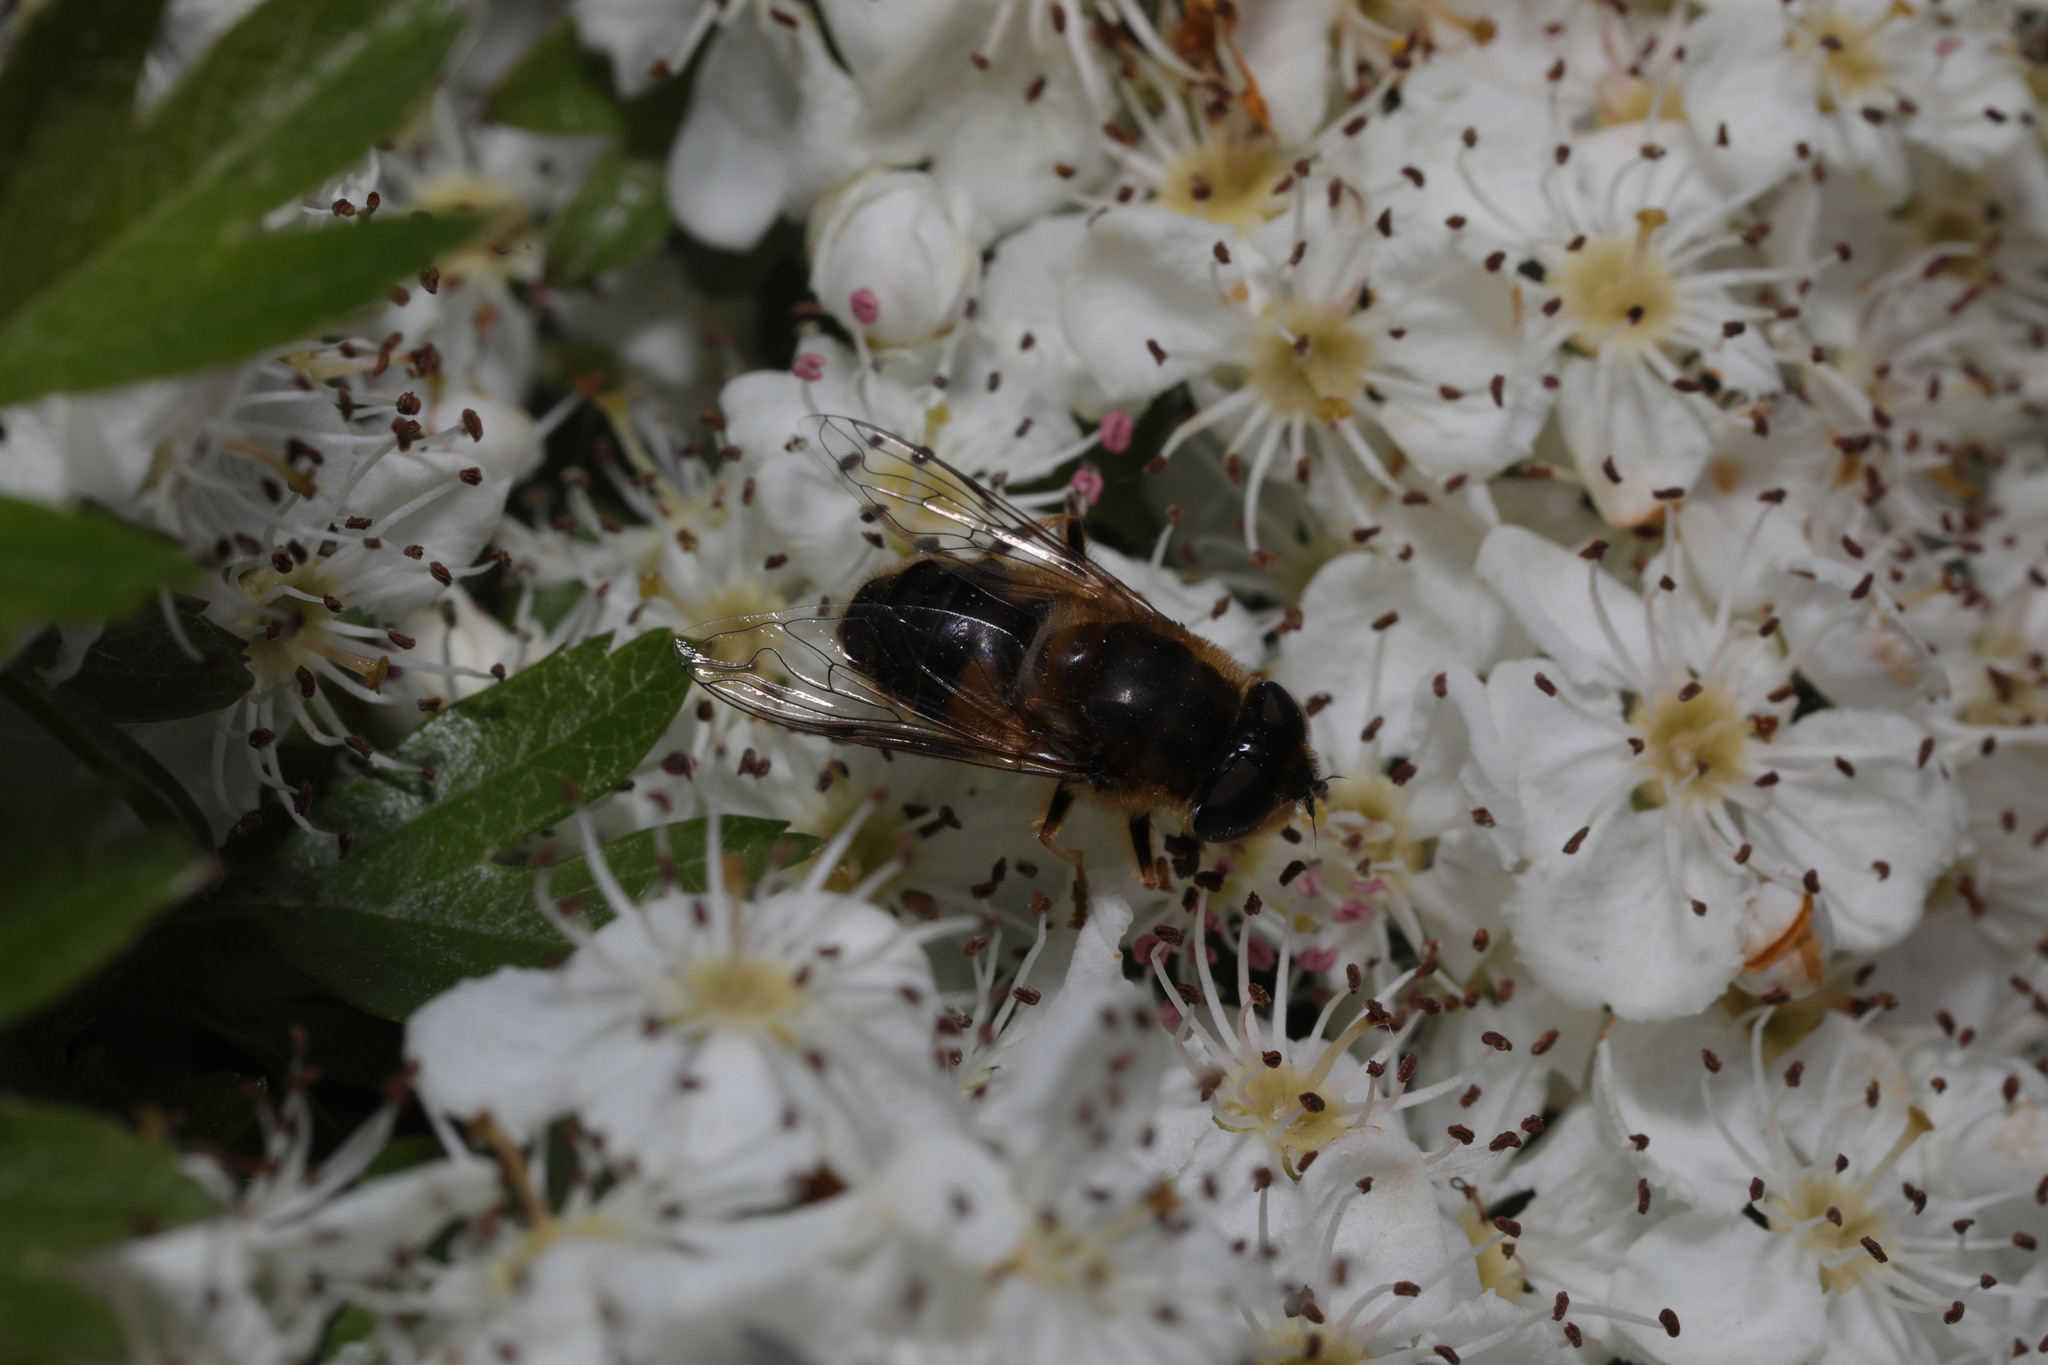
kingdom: Animalia
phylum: Arthropoda
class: Insecta
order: Diptera
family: Syrphidae
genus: Eristalis
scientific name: Eristalis pertinax
